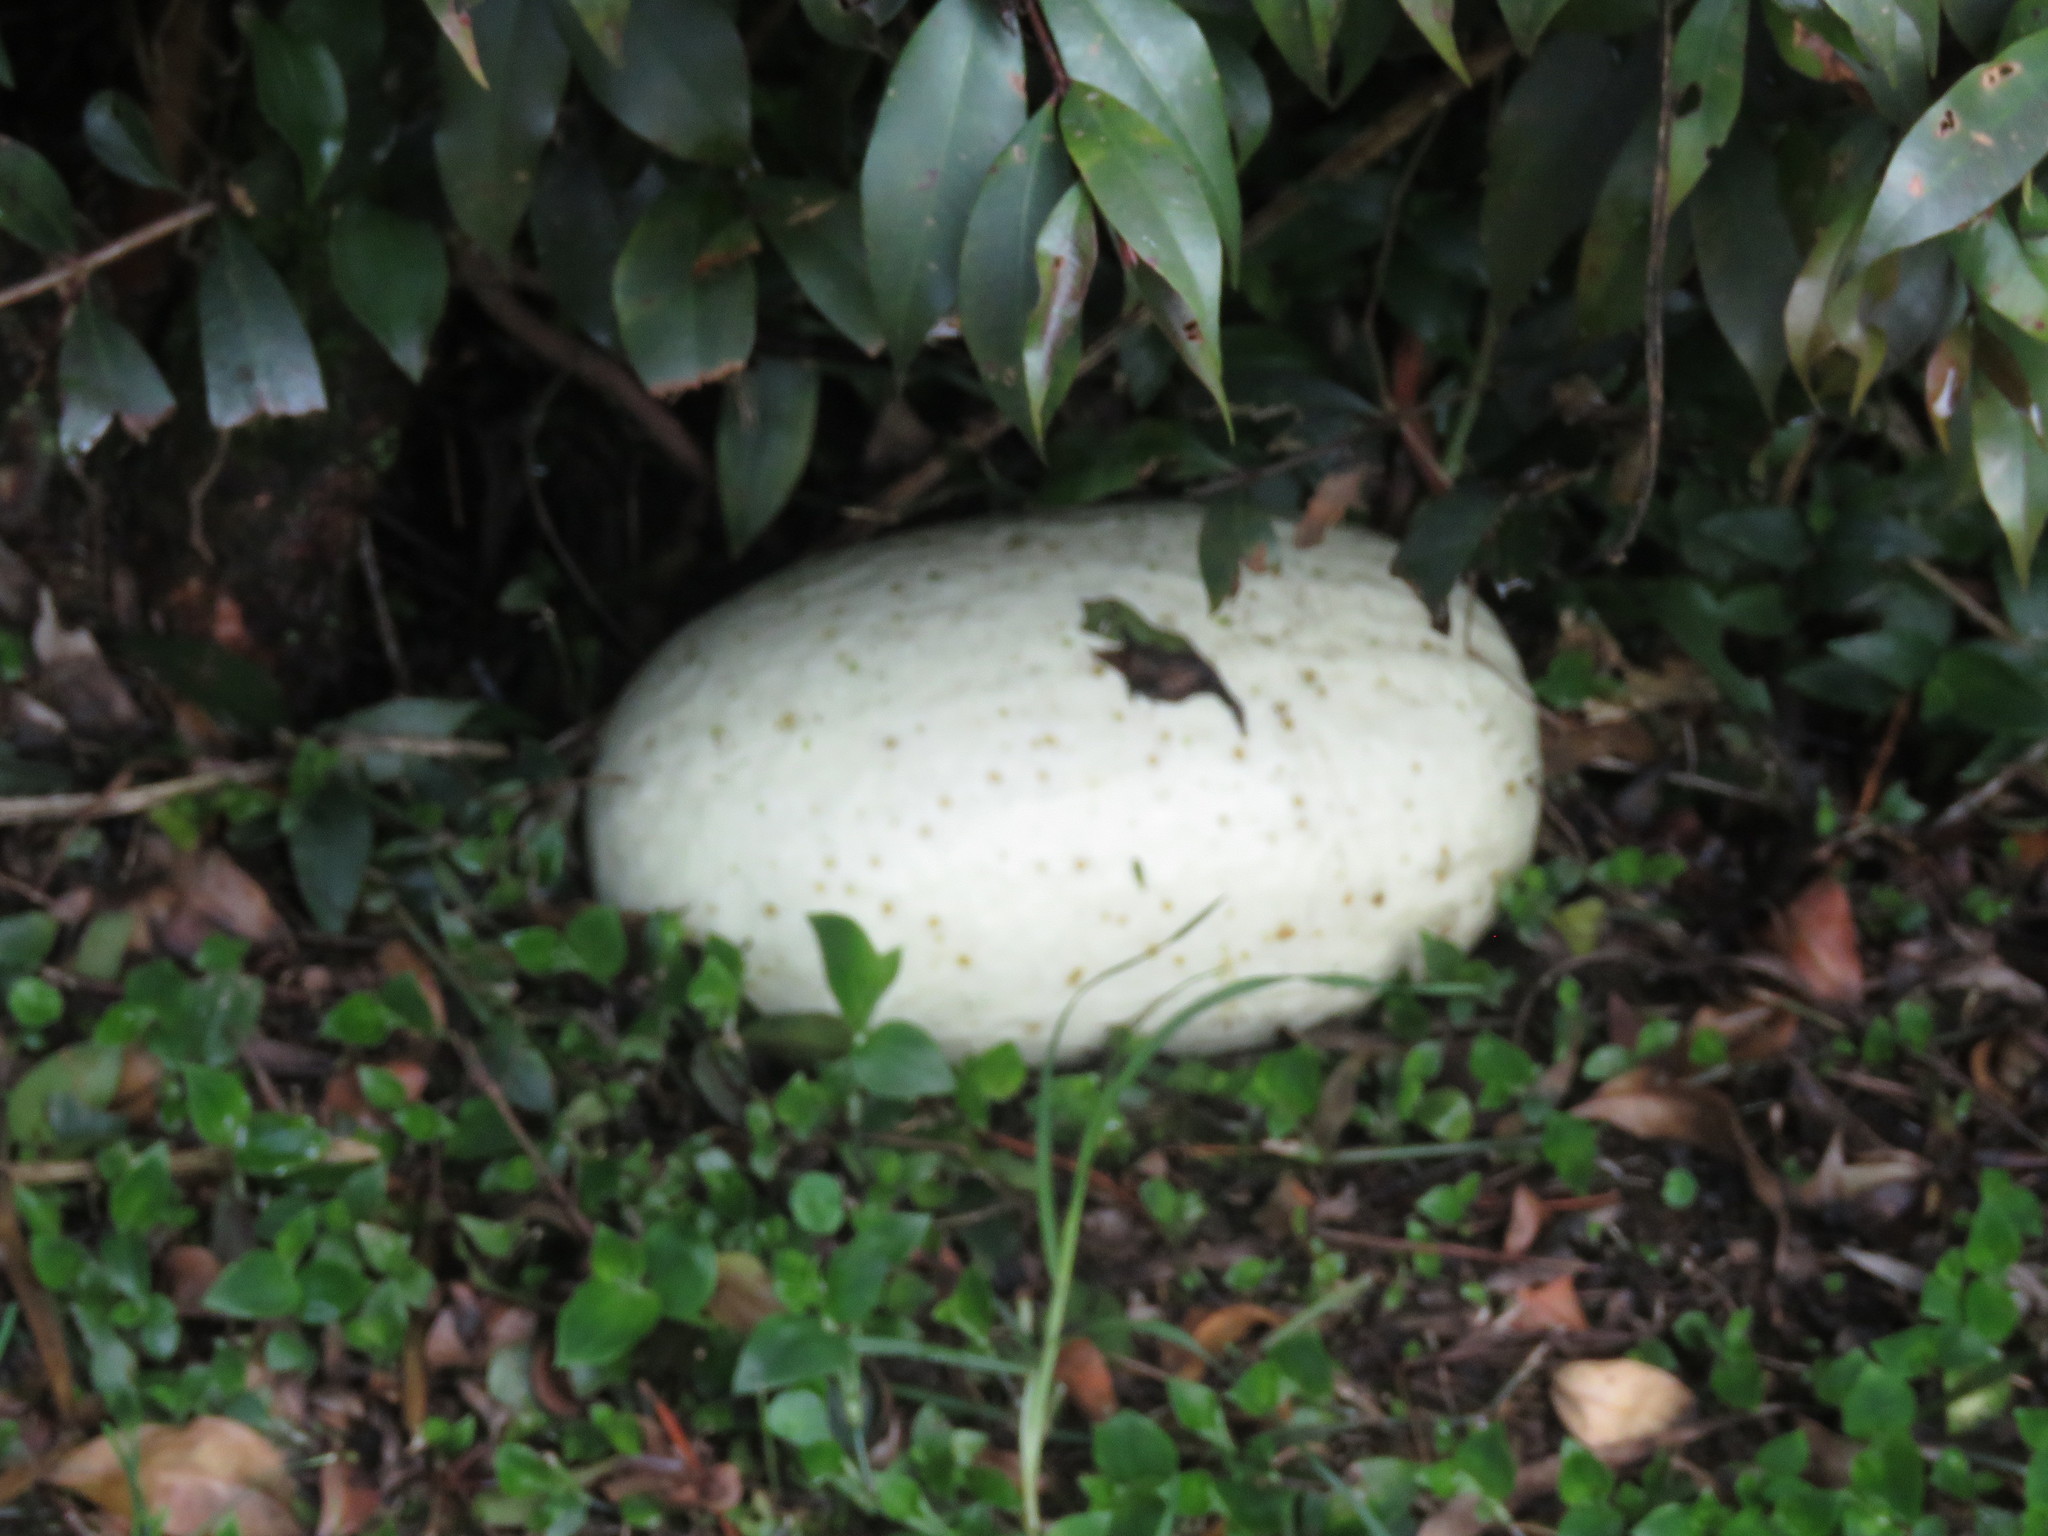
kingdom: Plantae
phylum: Tracheophyta
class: Magnoliopsida
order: Cucurbitales
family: Cucurbitaceae
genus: Cucurbita
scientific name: Cucurbita ficifolia
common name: Figleaf gourd
